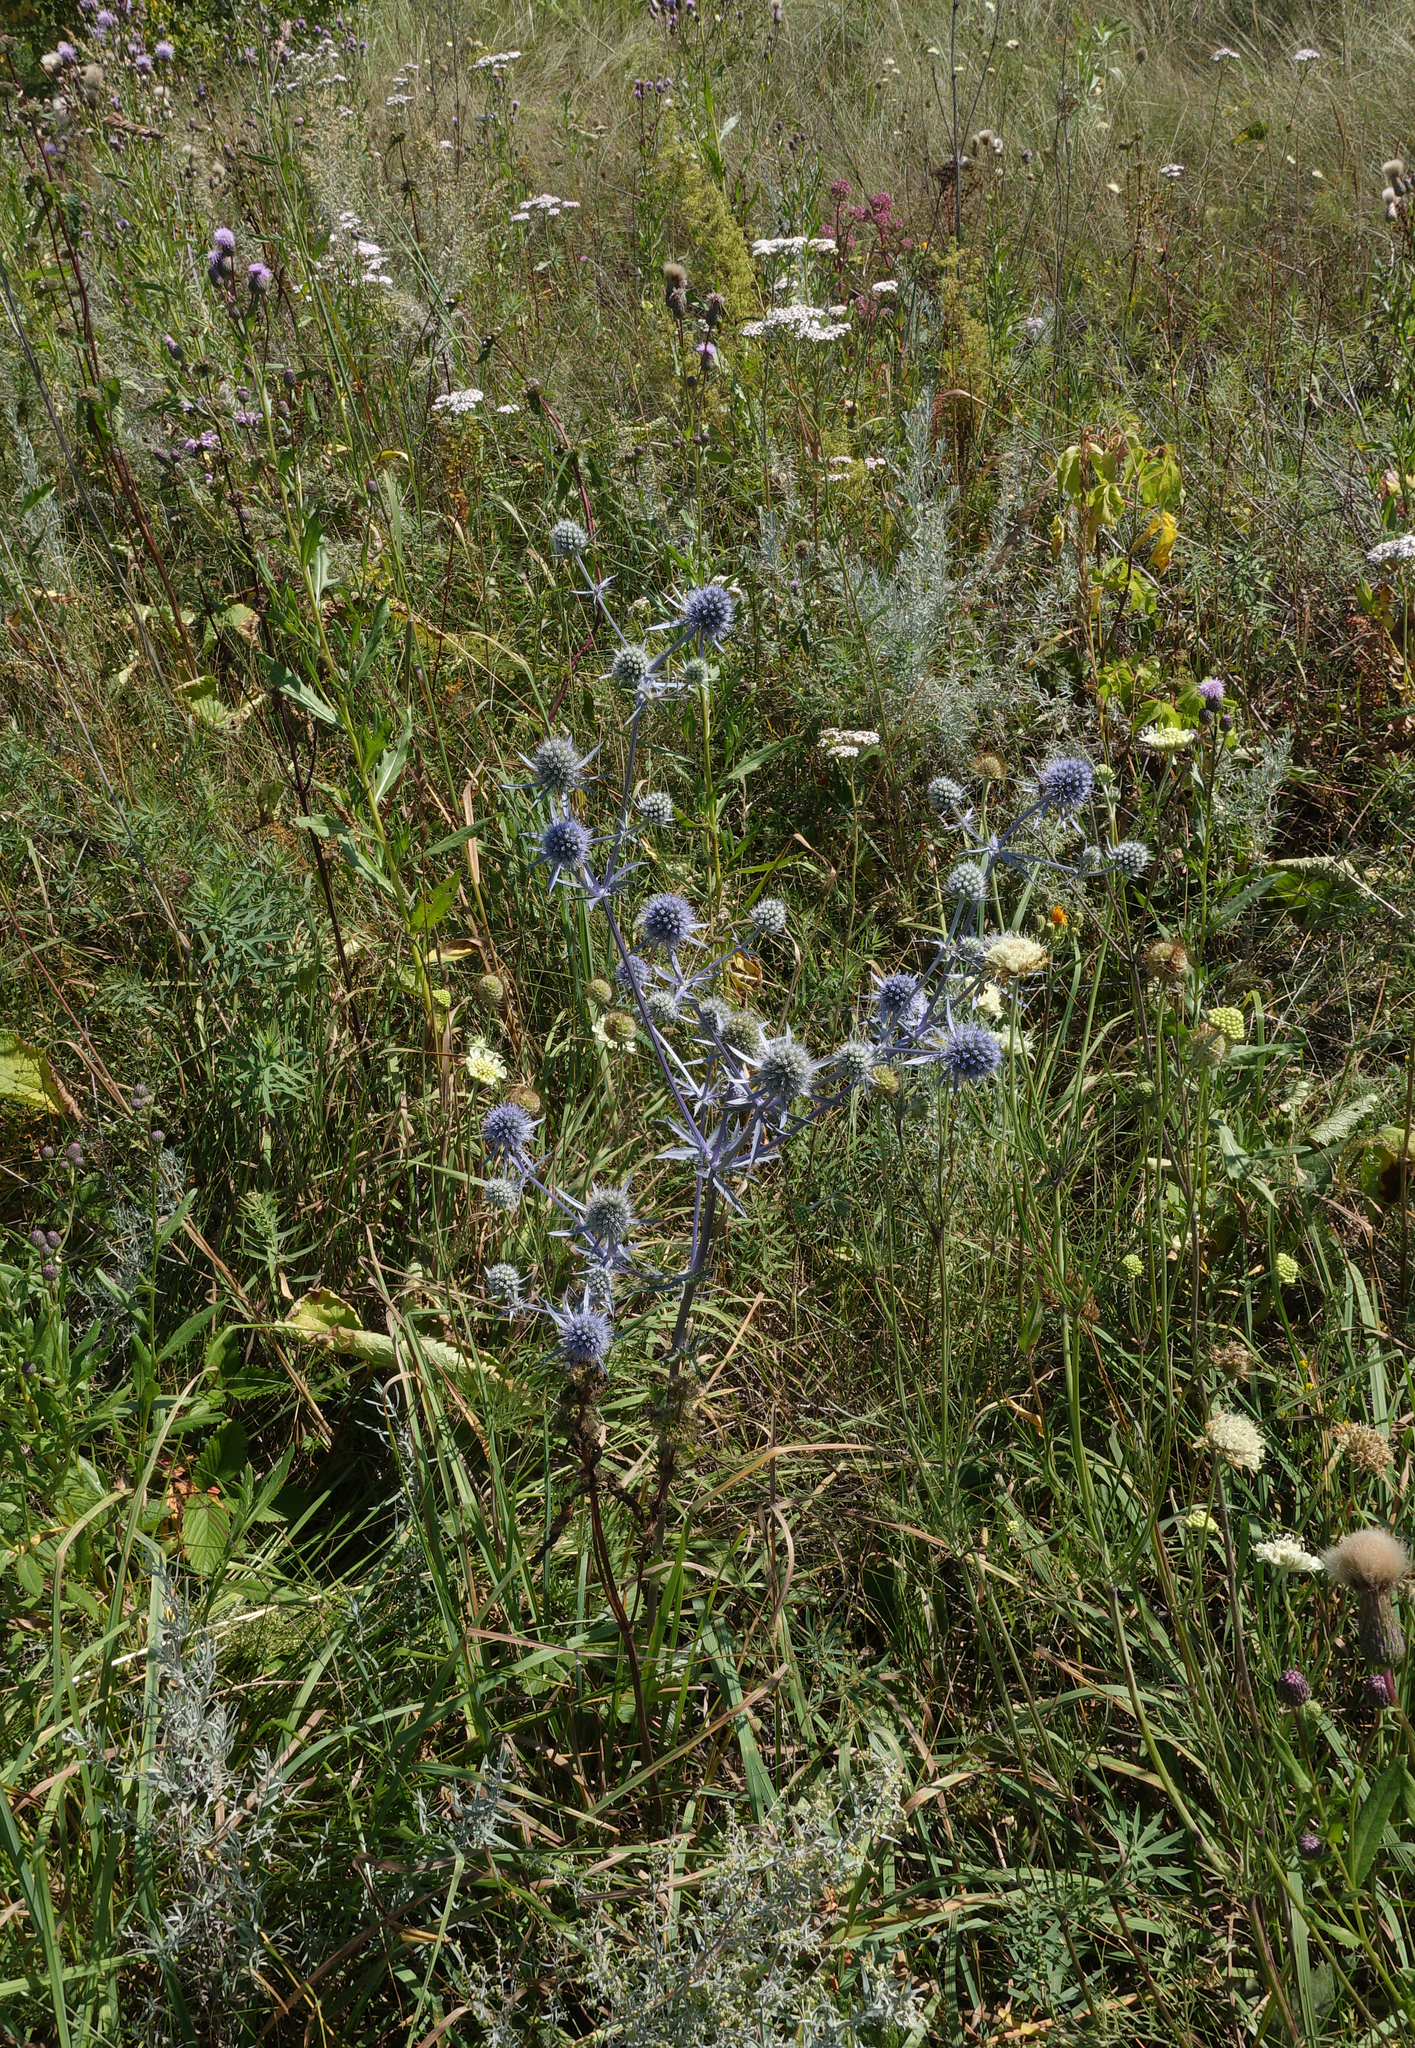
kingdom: Plantae
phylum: Tracheophyta
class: Magnoliopsida
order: Apiales
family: Apiaceae
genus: Eryngium
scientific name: Eryngium planum
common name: Blue eryngo
